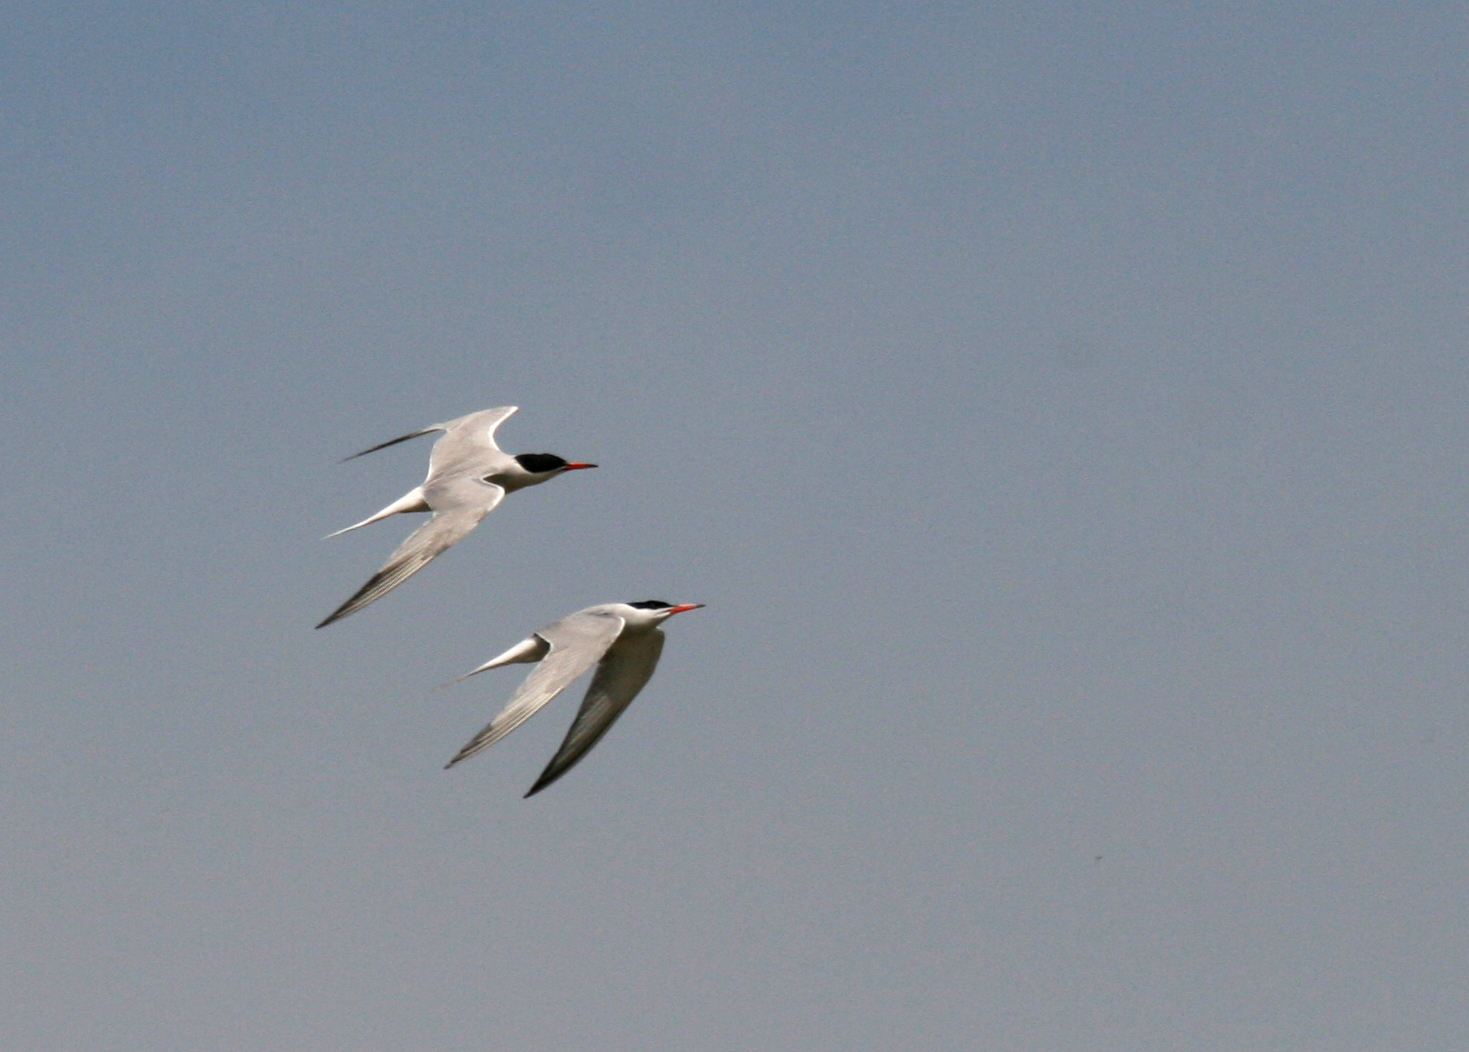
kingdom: Animalia
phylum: Chordata
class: Aves
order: Charadriiformes
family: Laridae
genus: Sterna
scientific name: Sterna hirundo
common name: Common tern
